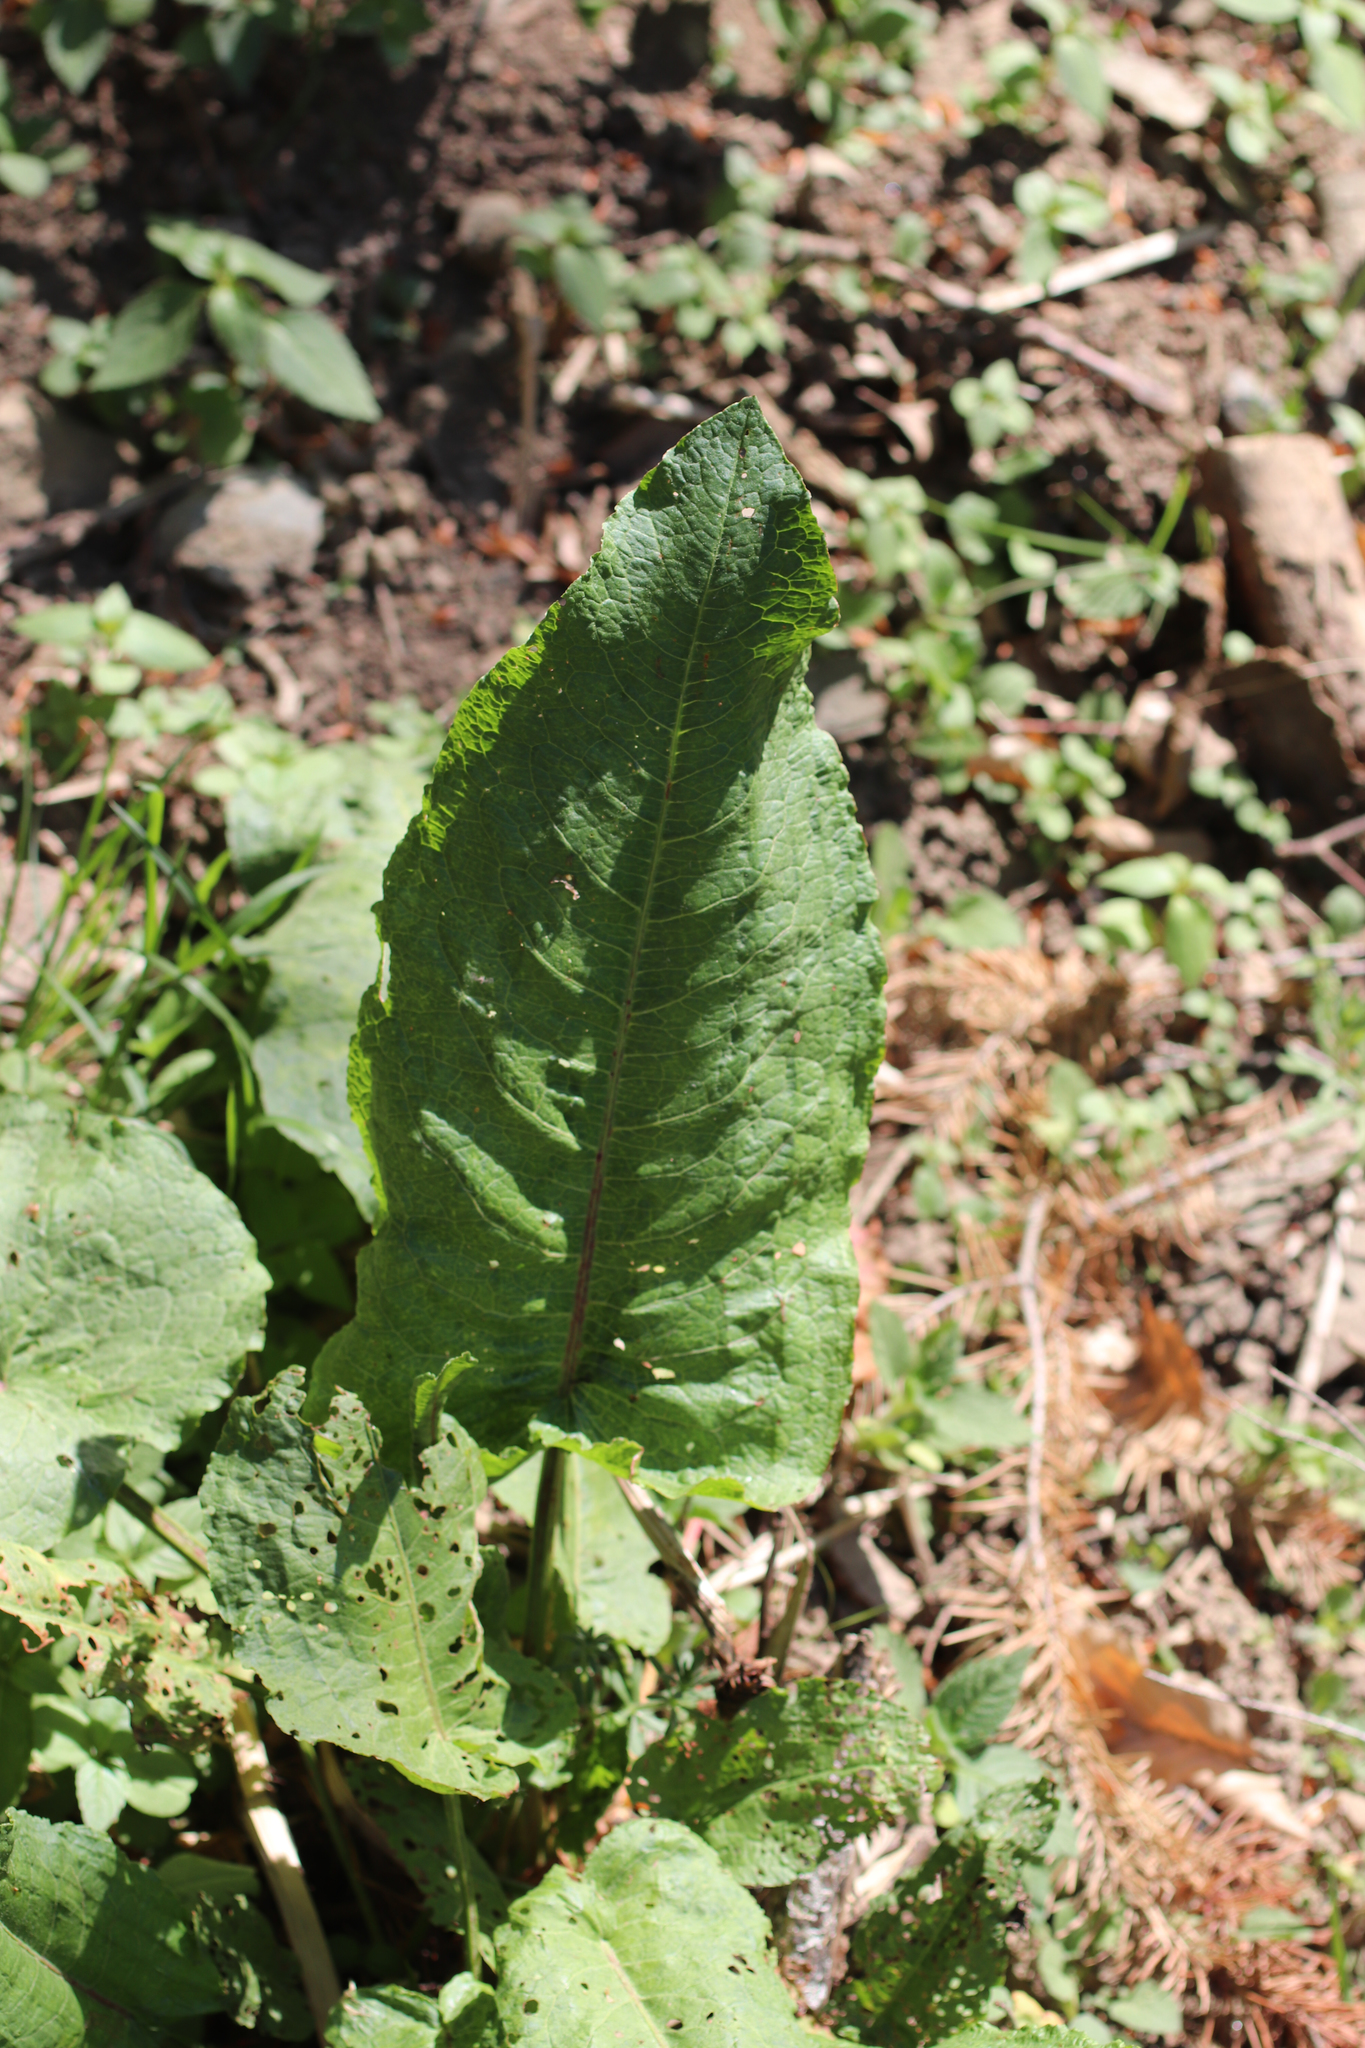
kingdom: Plantae
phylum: Tracheophyta
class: Magnoliopsida
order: Caryophyllales
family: Polygonaceae
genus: Rumex
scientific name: Rumex obtusifolius
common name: Bitter dock
